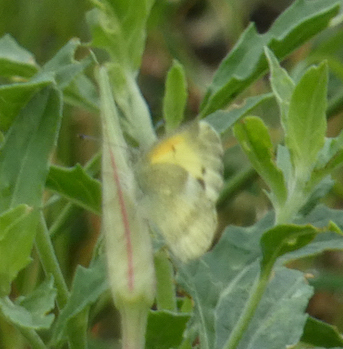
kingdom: Animalia
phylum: Arthropoda
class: Insecta
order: Lepidoptera
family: Pieridae
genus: Nathalis
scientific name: Nathalis iole
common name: Dainty sulphur
